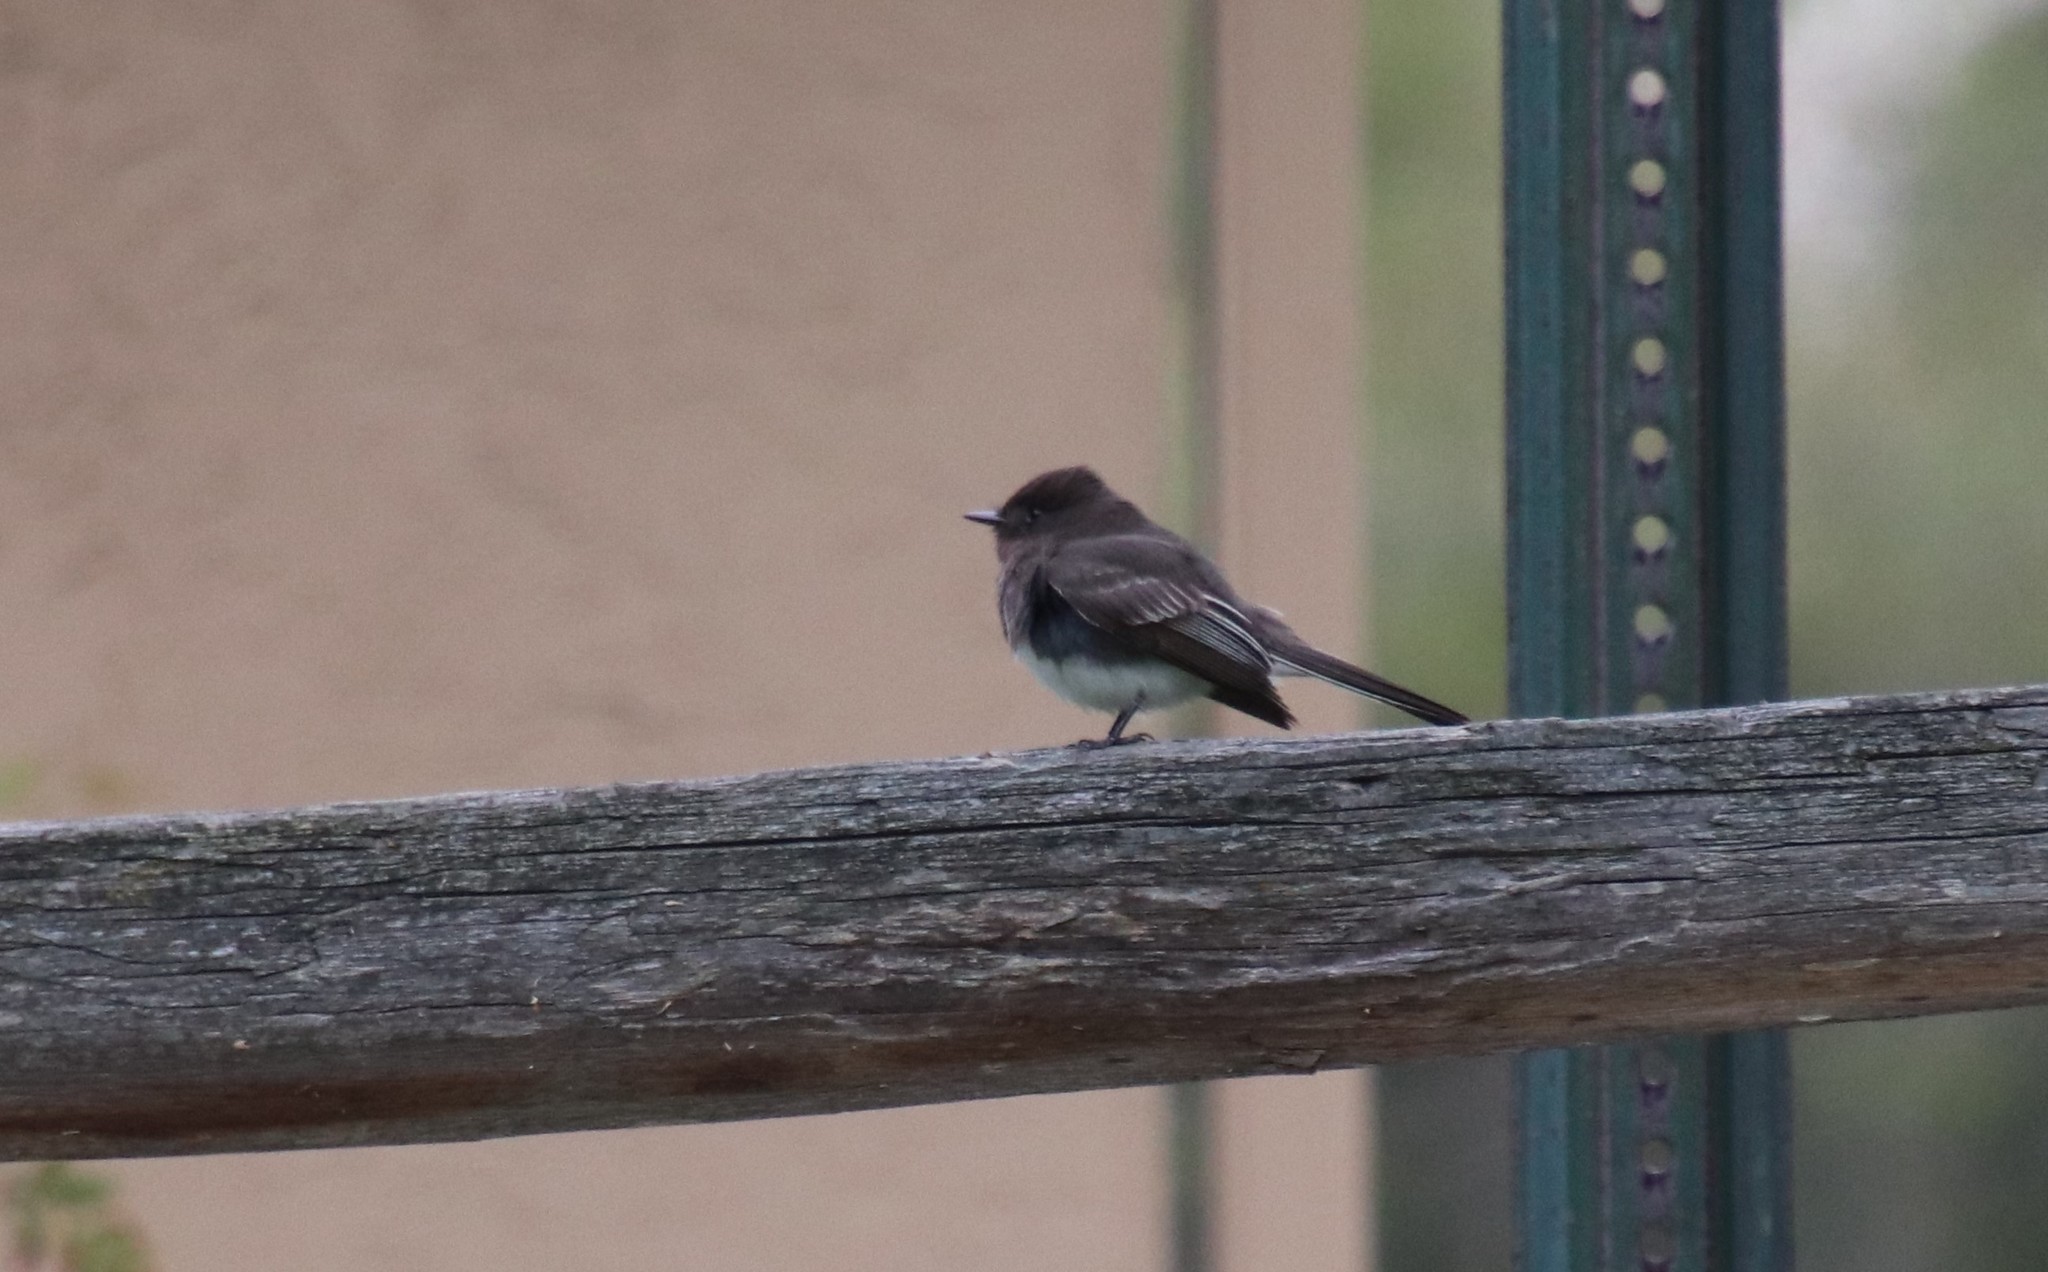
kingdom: Animalia
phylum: Chordata
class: Aves
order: Passeriformes
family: Tyrannidae
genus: Sayornis
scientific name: Sayornis nigricans
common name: Black phoebe
